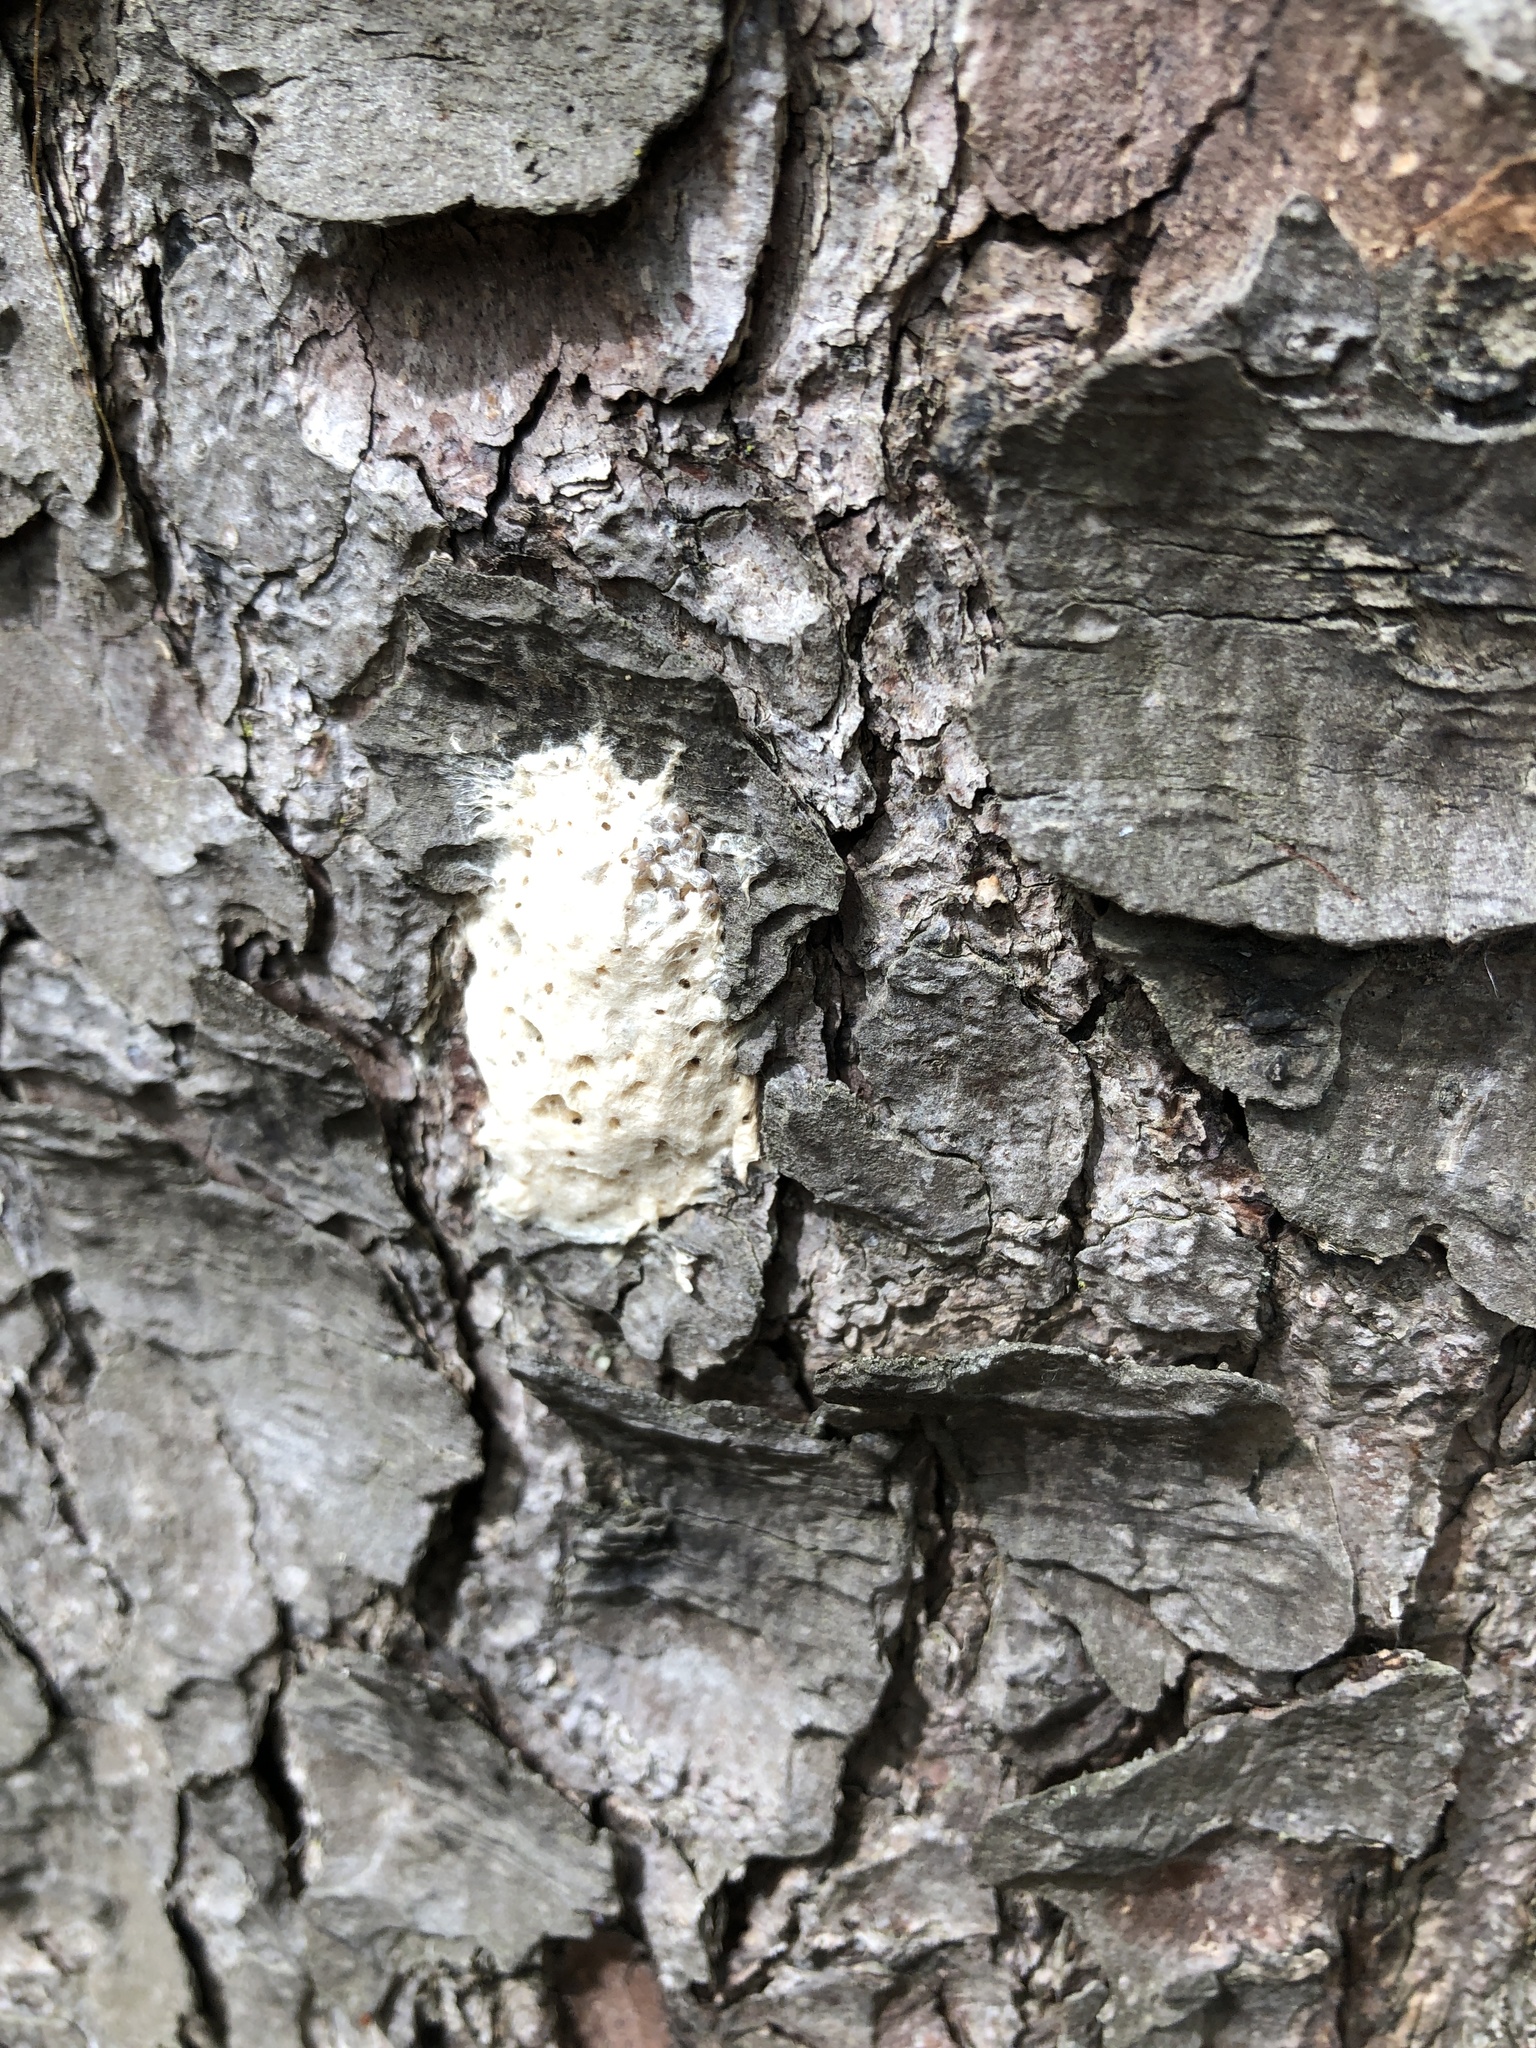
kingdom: Animalia
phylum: Arthropoda
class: Insecta
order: Lepidoptera
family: Erebidae
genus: Lymantria
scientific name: Lymantria dispar
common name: Gypsy moth
